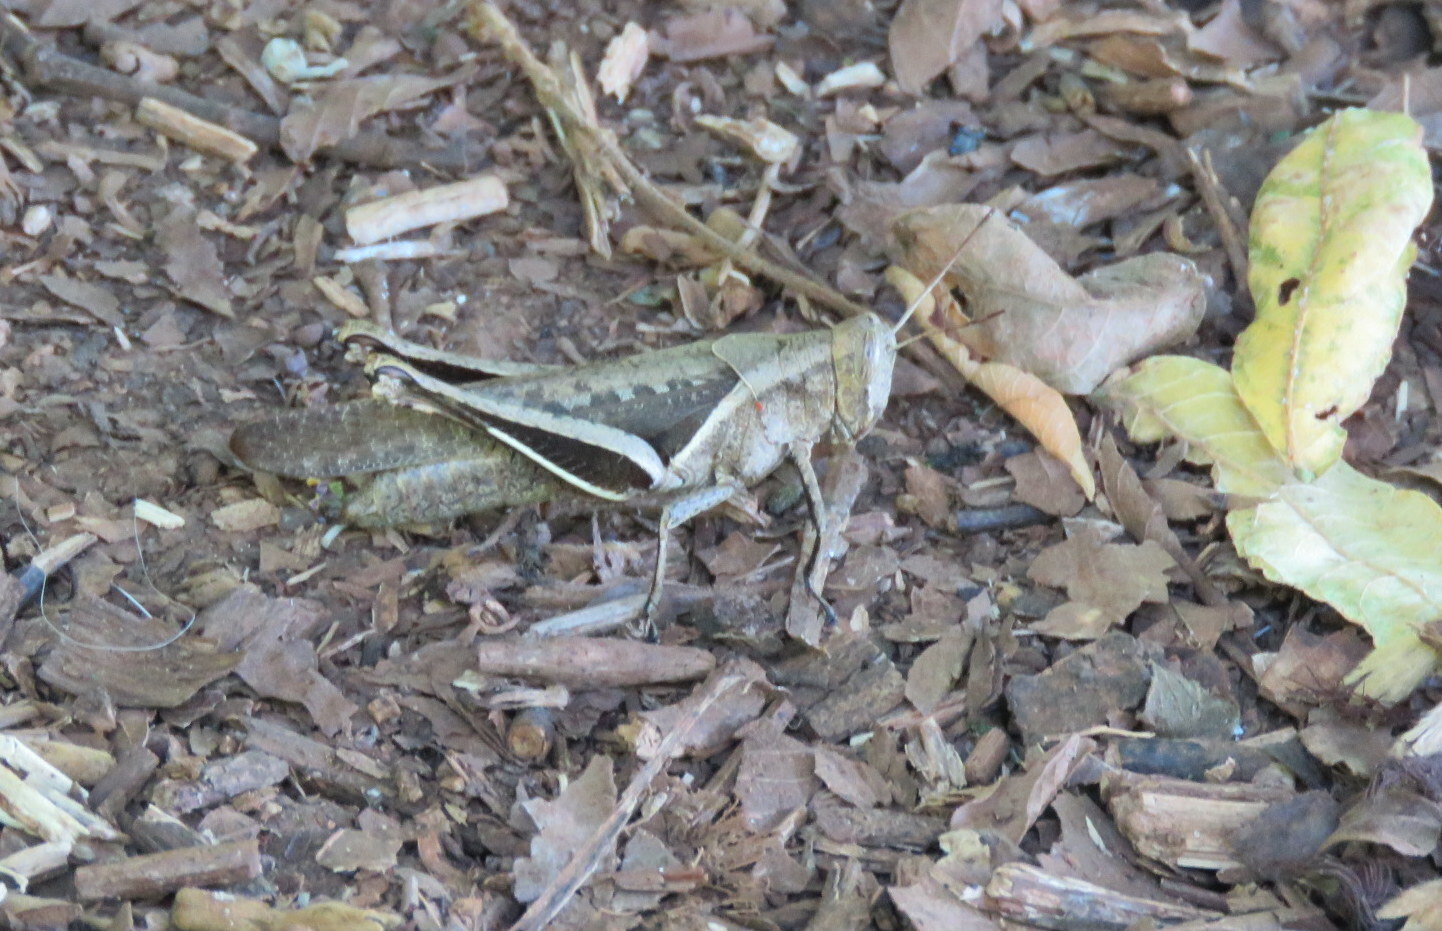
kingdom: Animalia
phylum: Arthropoda
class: Insecta
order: Orthoptera
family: Acrididae
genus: Abracris
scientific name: Abracris flavolineata
